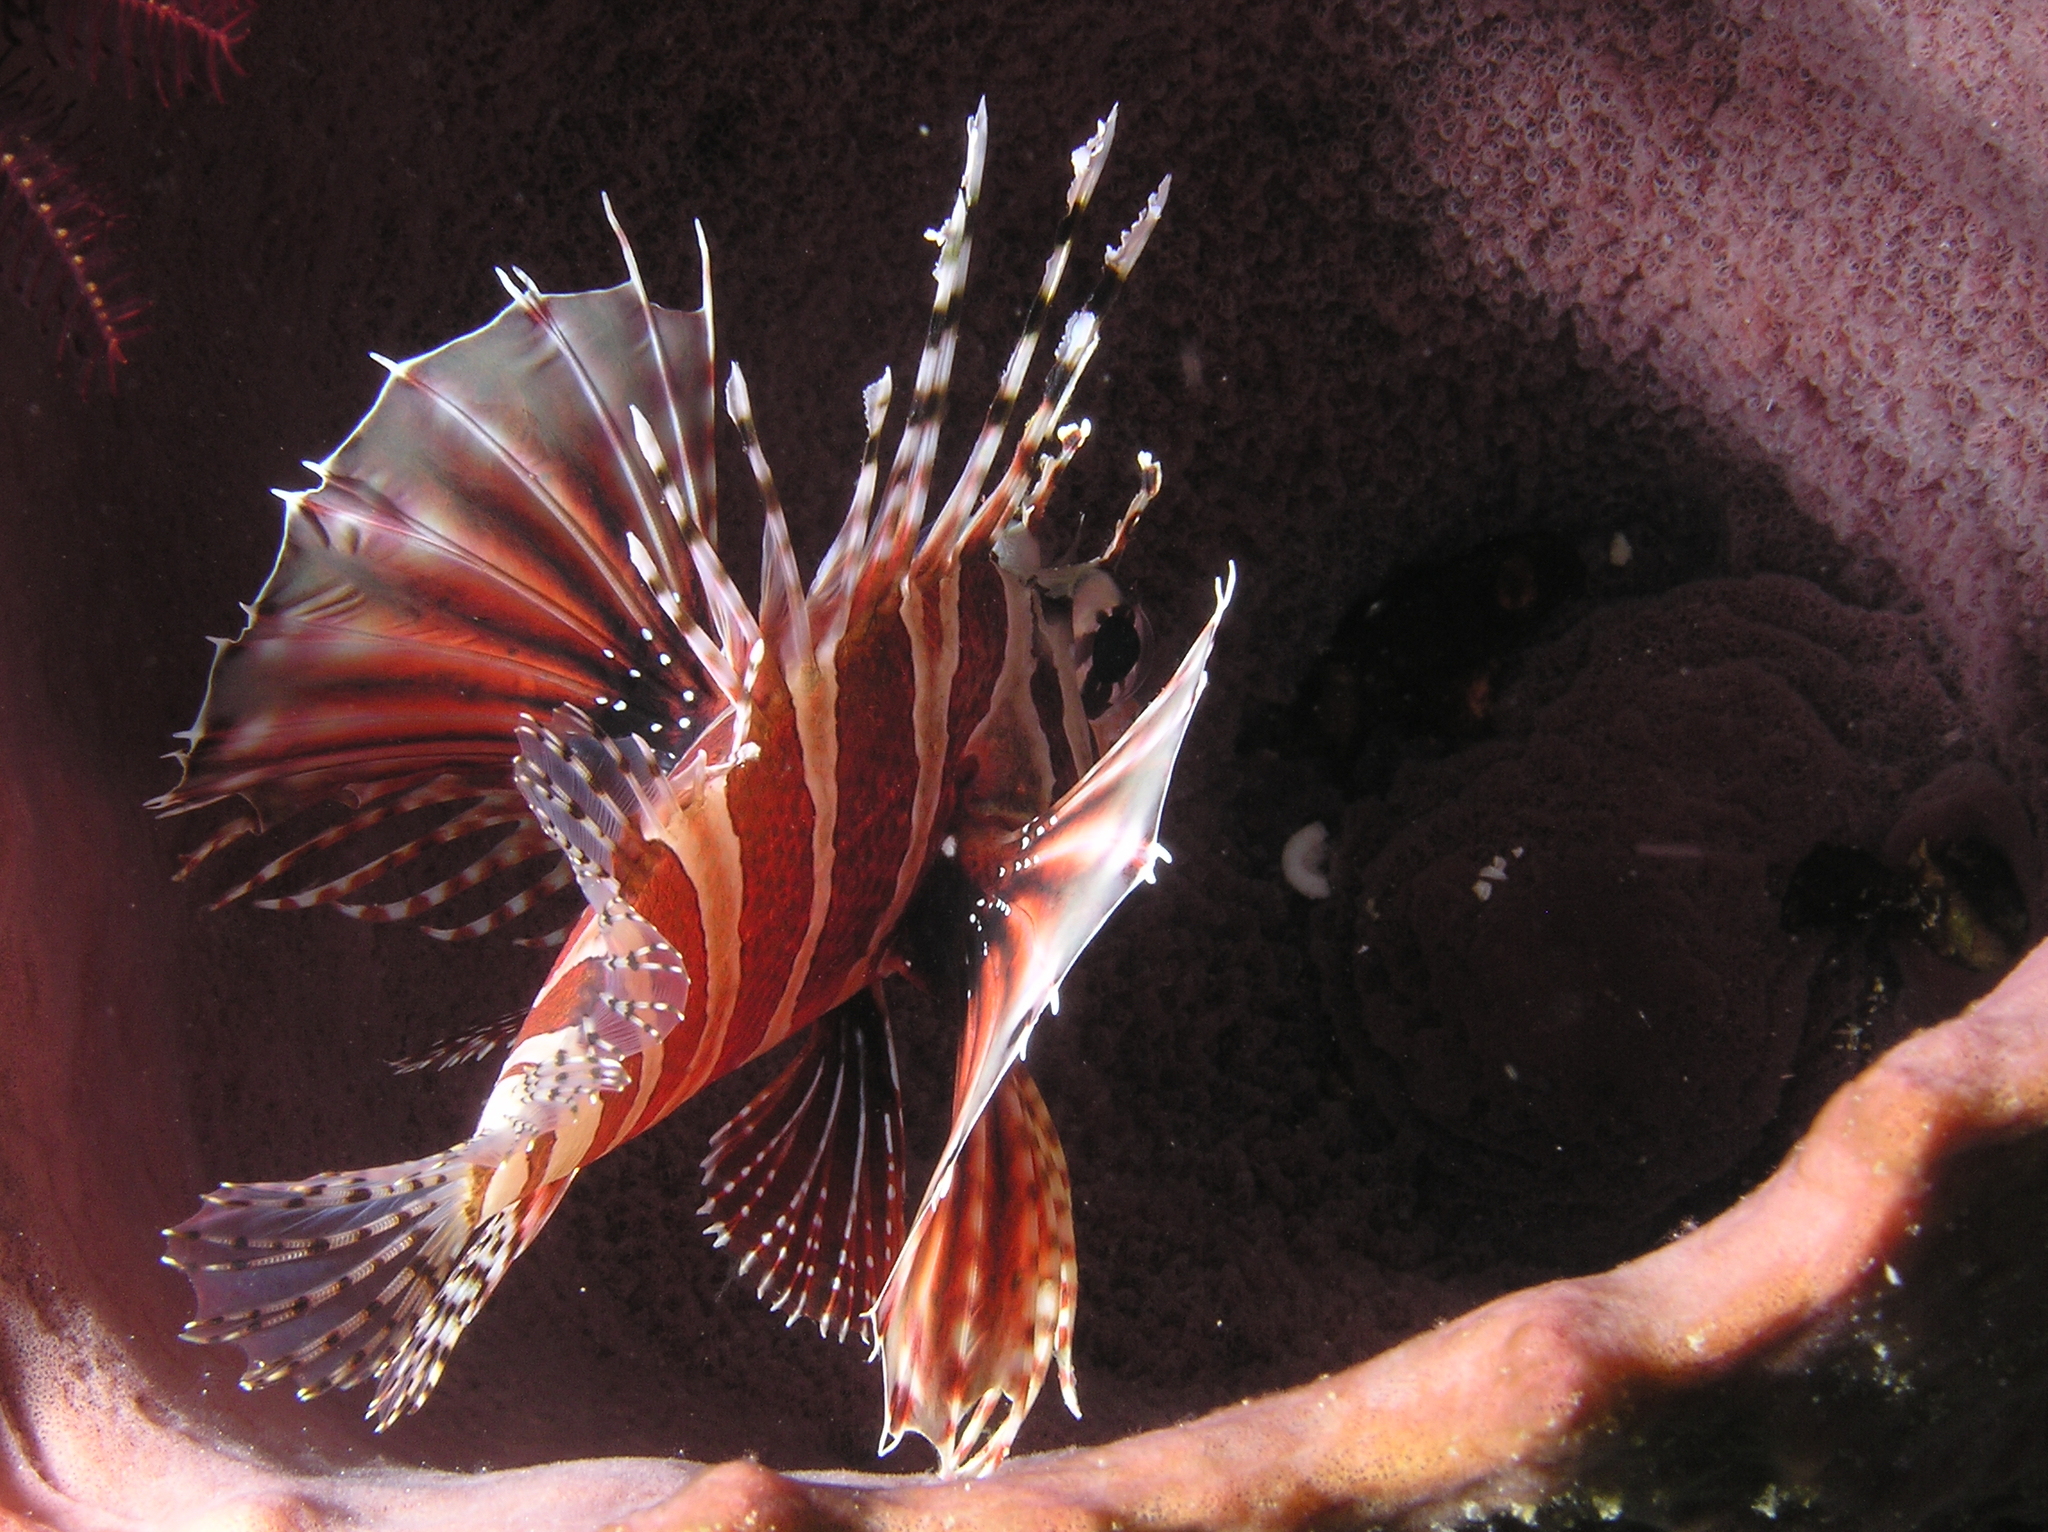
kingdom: Animalia
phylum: Chordata
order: Scorpaeniformes
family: Scorpaenidae
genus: Dendrochirus
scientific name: Dendrochirus zebra
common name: Zebra lionfish
